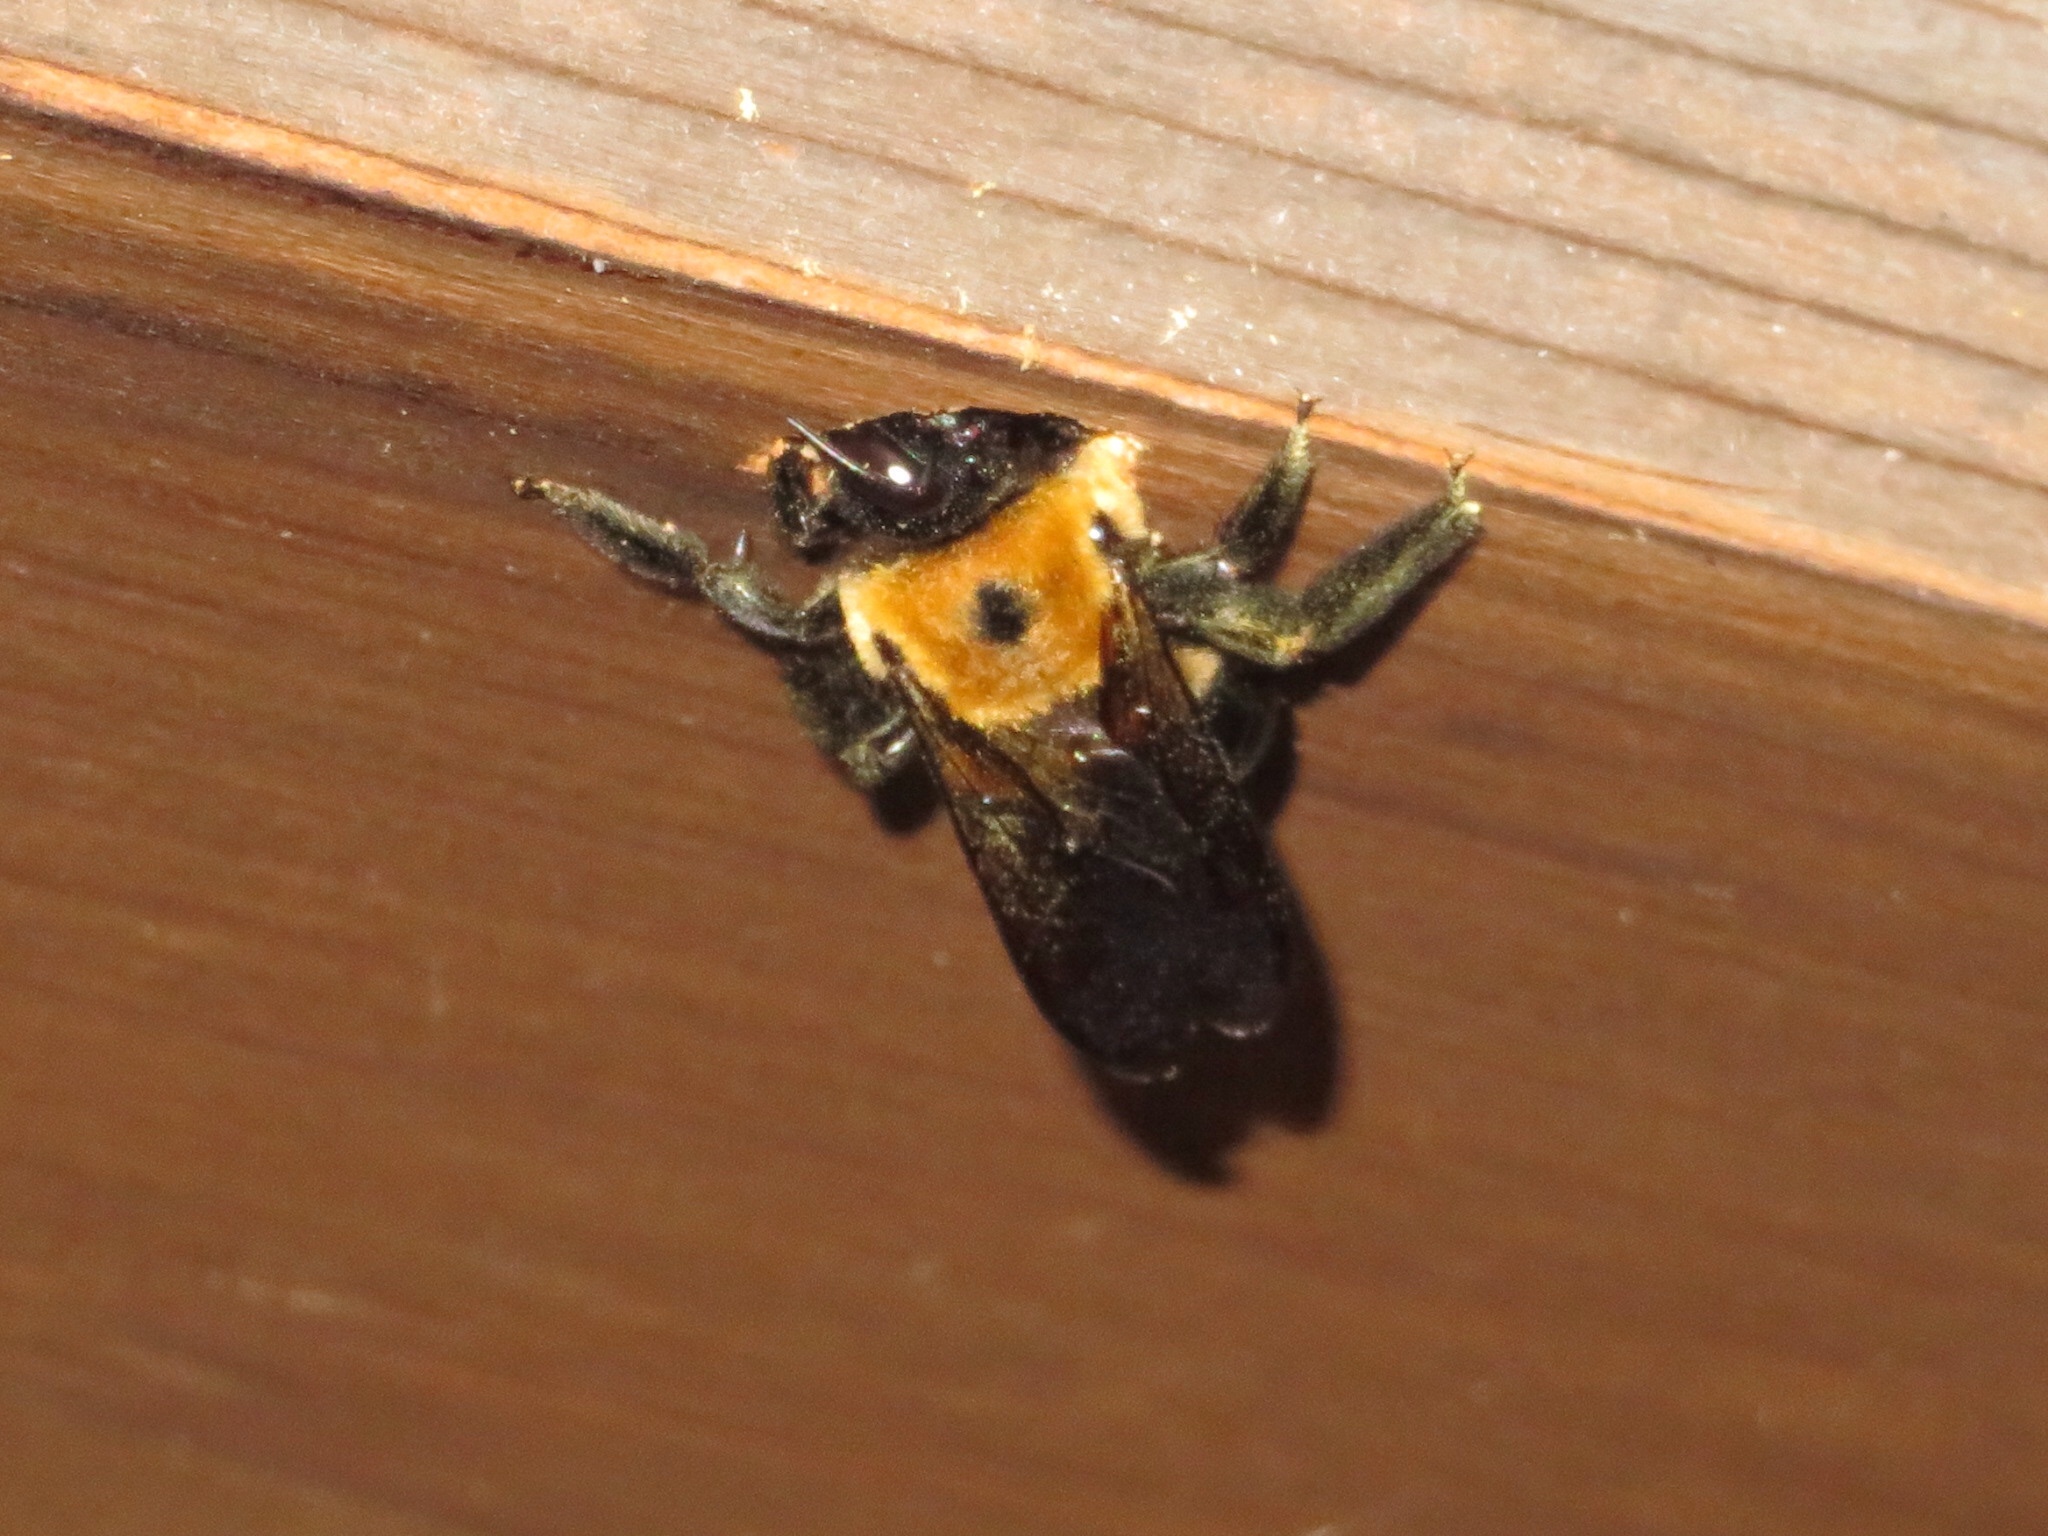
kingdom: Animalia
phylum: Arthropoda
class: Insecta
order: Hymenoptera
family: Apidae
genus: Xylocopa
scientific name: Xylocopa virginica
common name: Carpenter bee
